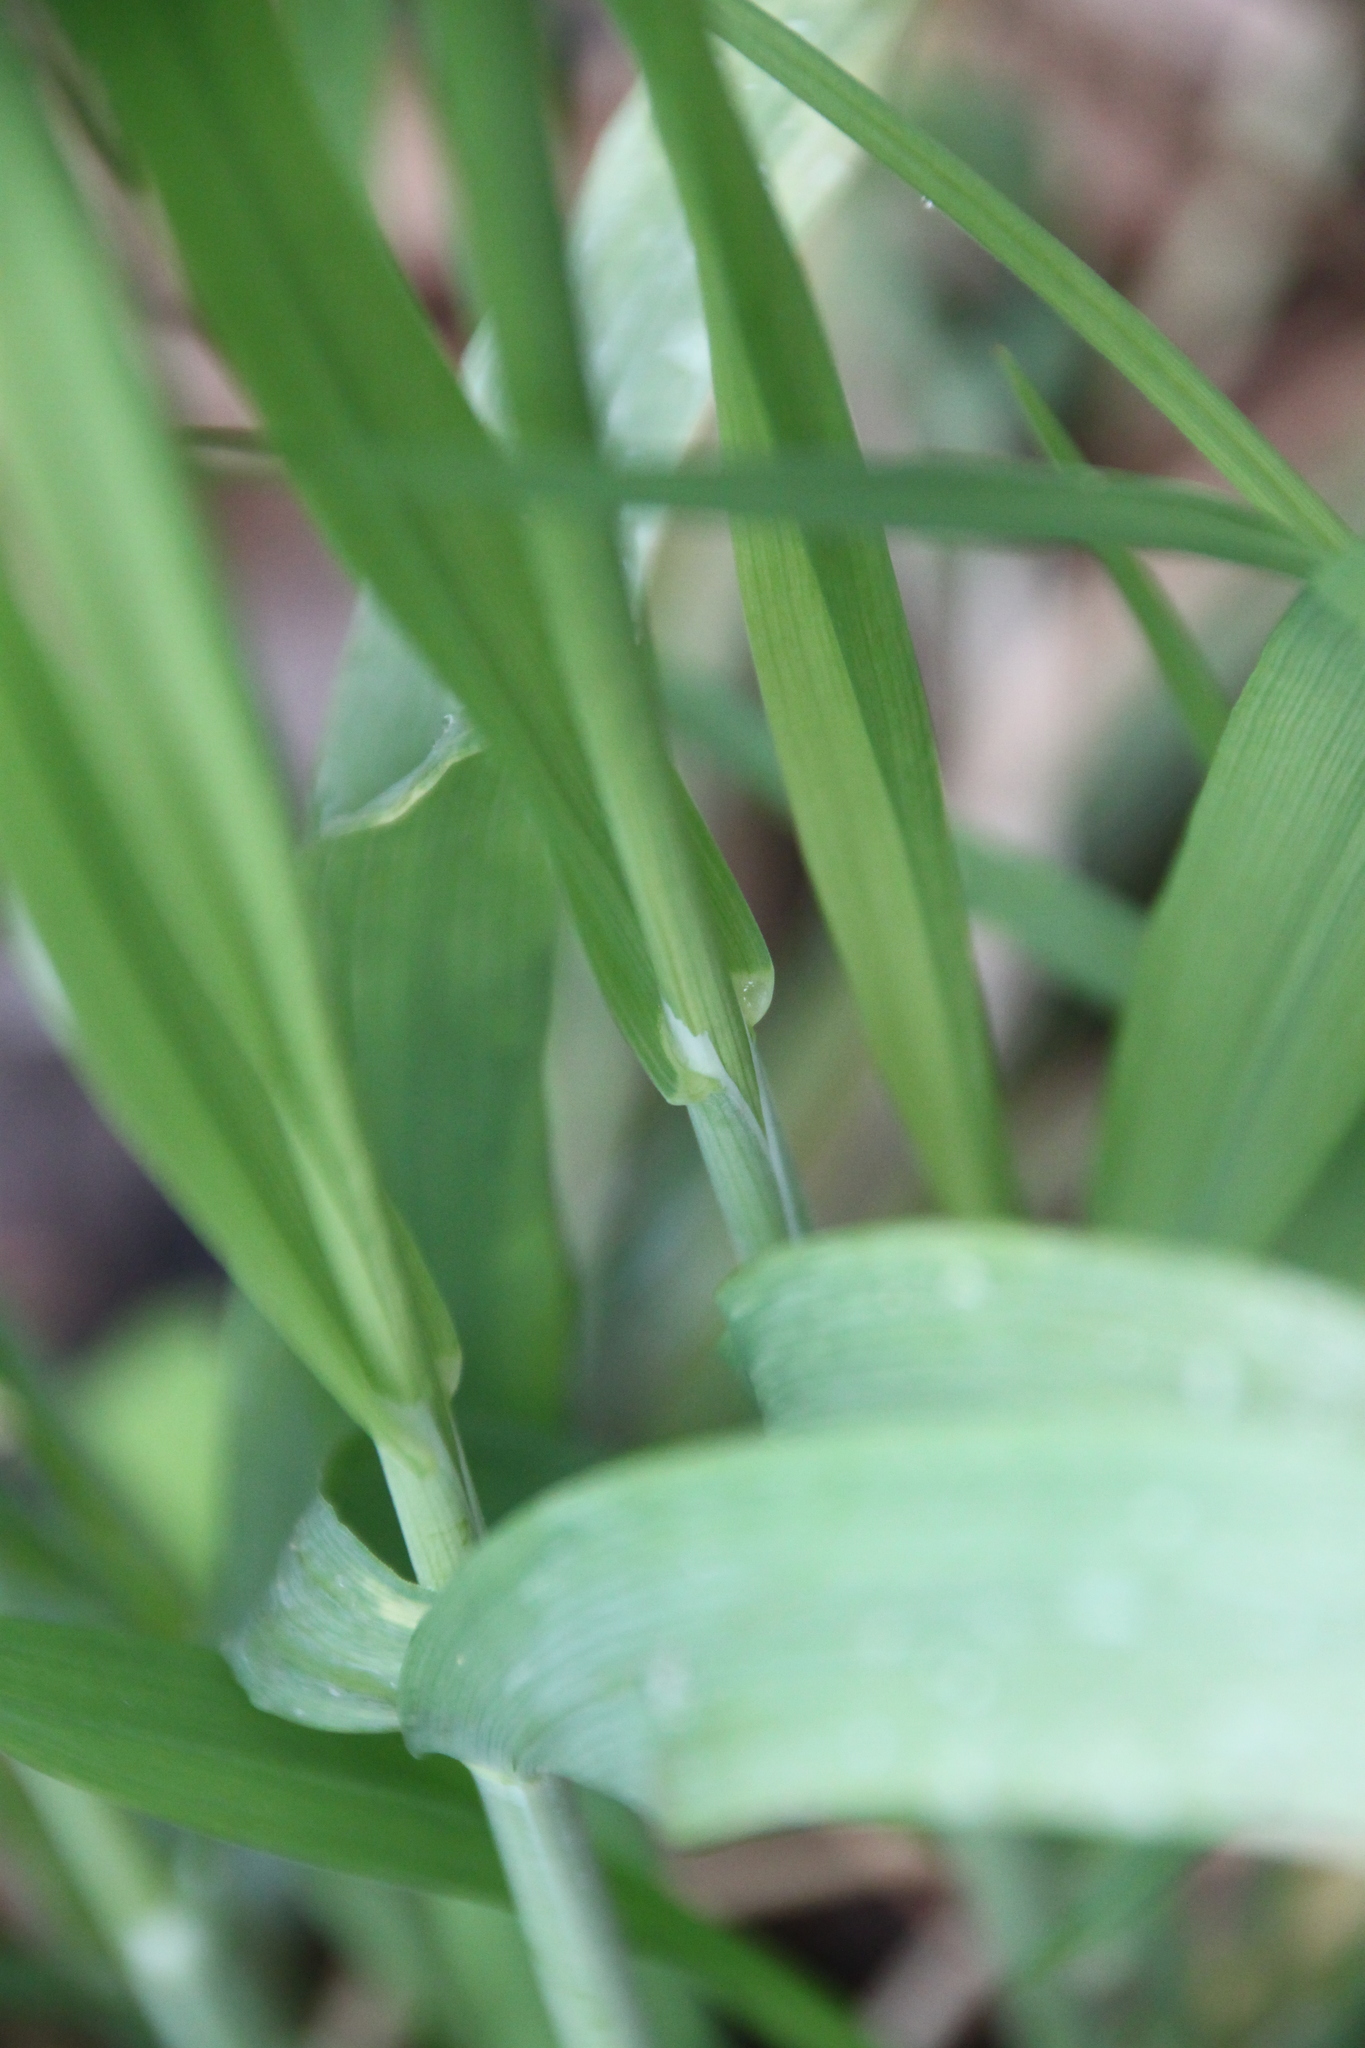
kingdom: Plantae
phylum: Tracheophyta
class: Liliopsida
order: Poales
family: Poaceae
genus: Milium
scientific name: Milium effusum
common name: Wood millet
